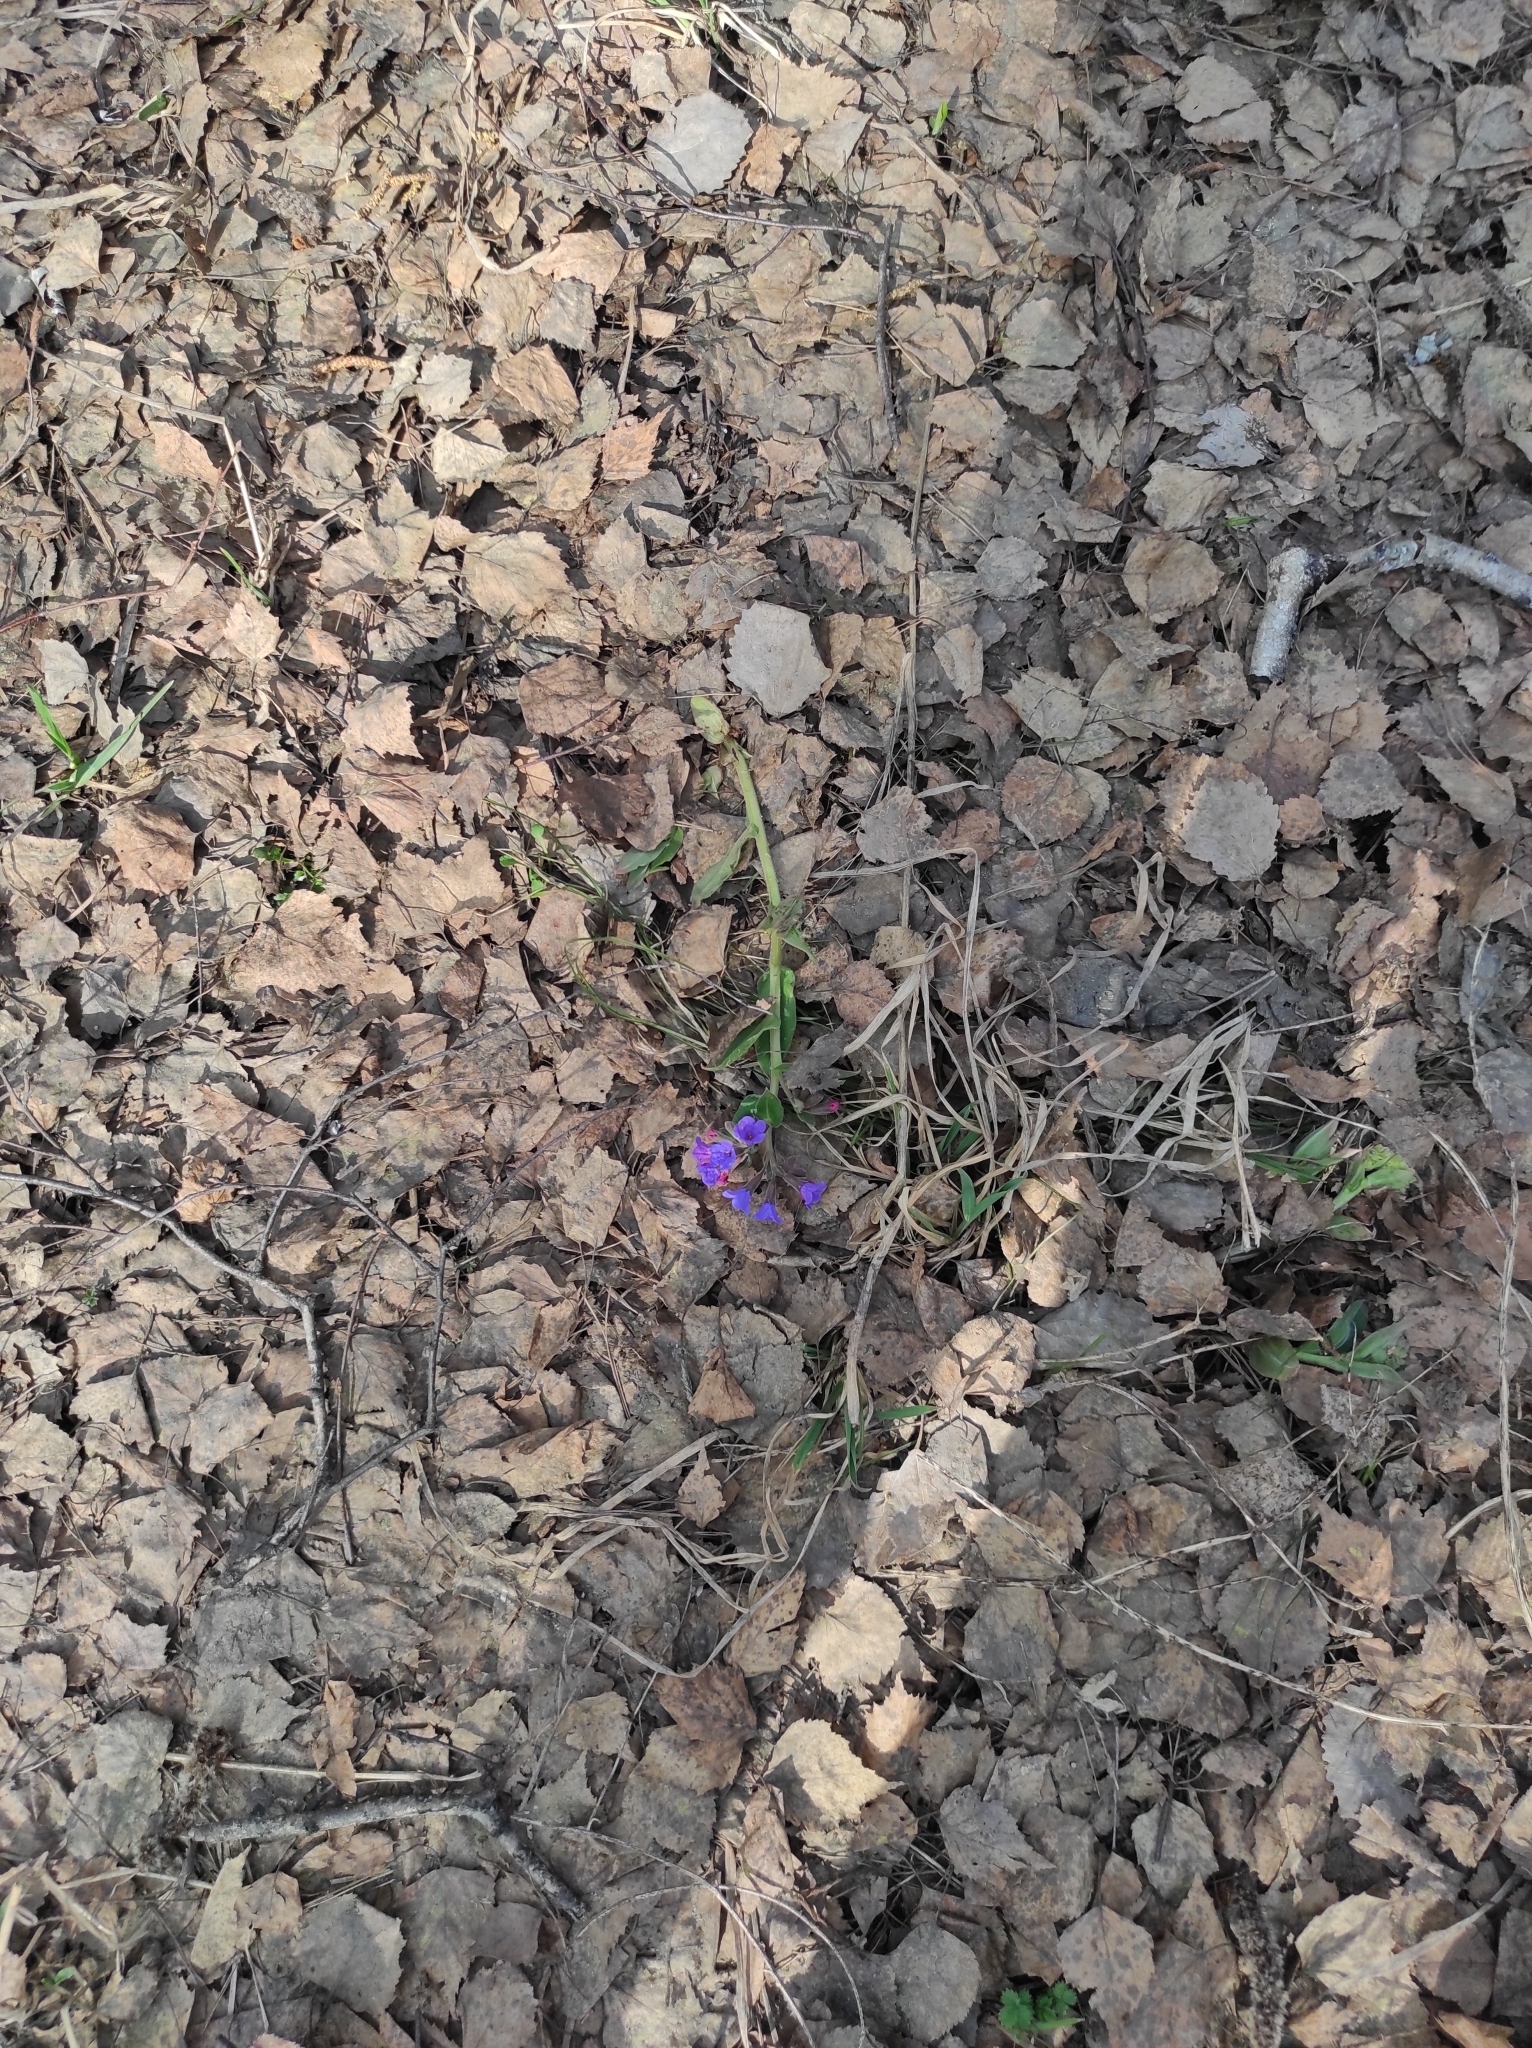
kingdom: Plantae
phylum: Tracheophyta
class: Magnoliopsida
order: Boraginales
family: Boraginaceae
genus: Pulmonaria
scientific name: Pulmonaria mollis
